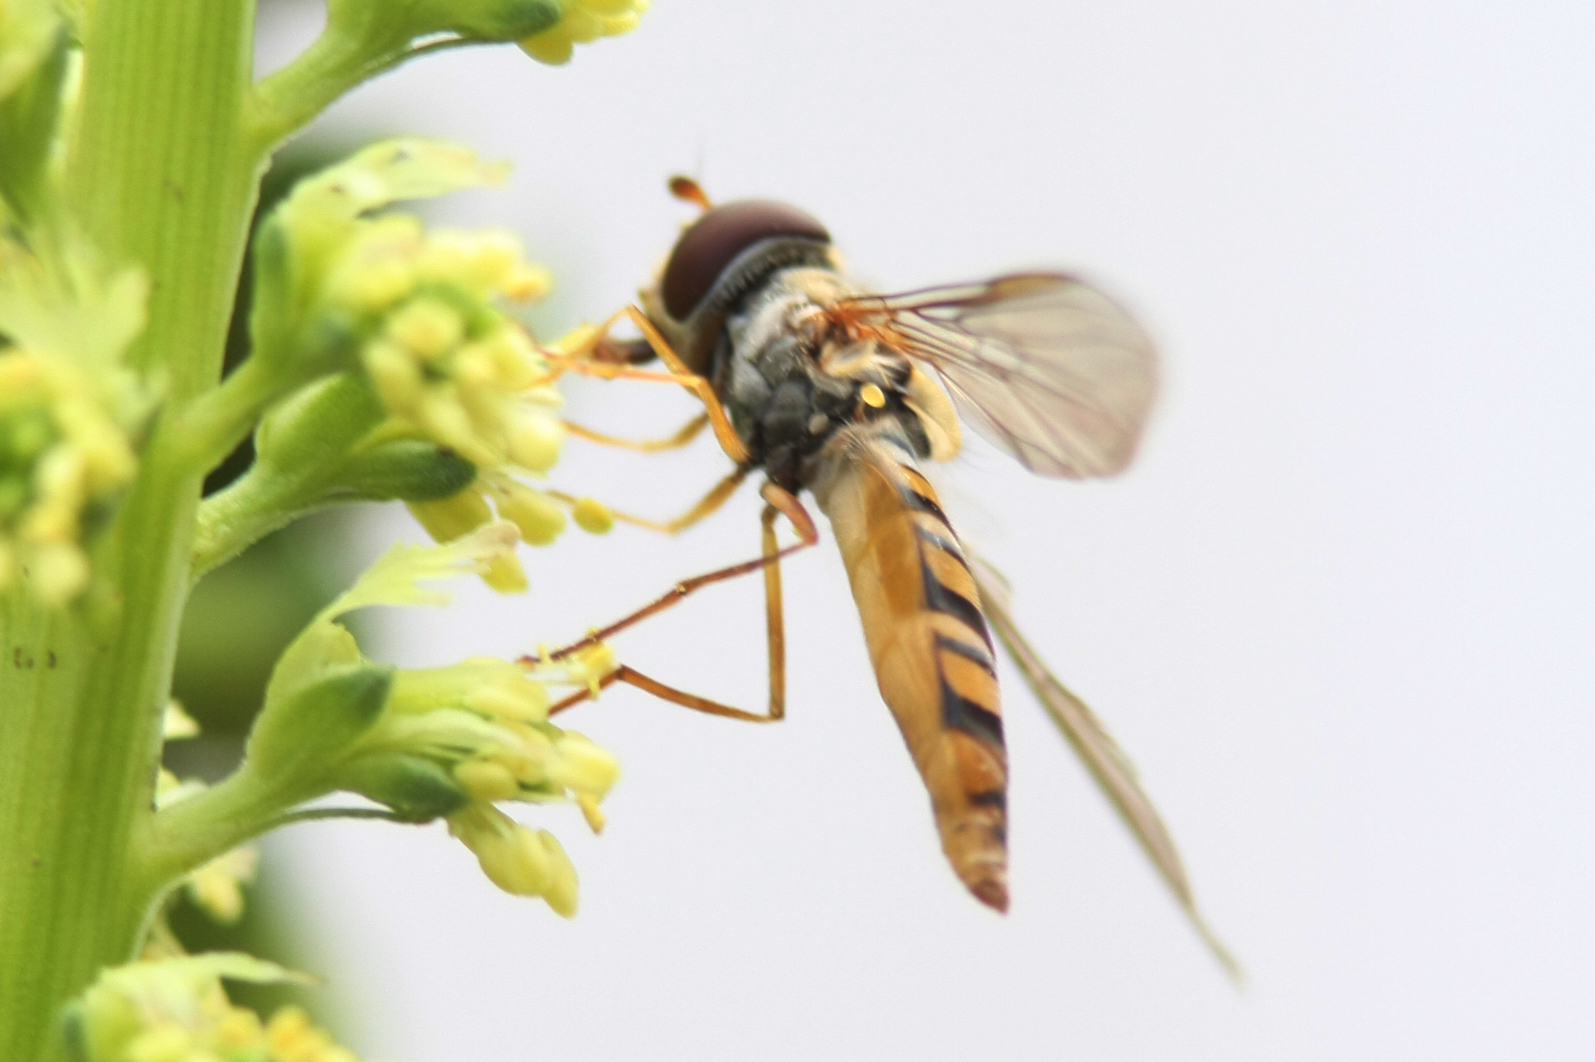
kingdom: Animalia
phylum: Arthropoda
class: Insecta
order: Diptera
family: Syrphidae
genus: Episyrphus
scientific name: Episyrphus balteatus
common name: Marmalade hoverfly
